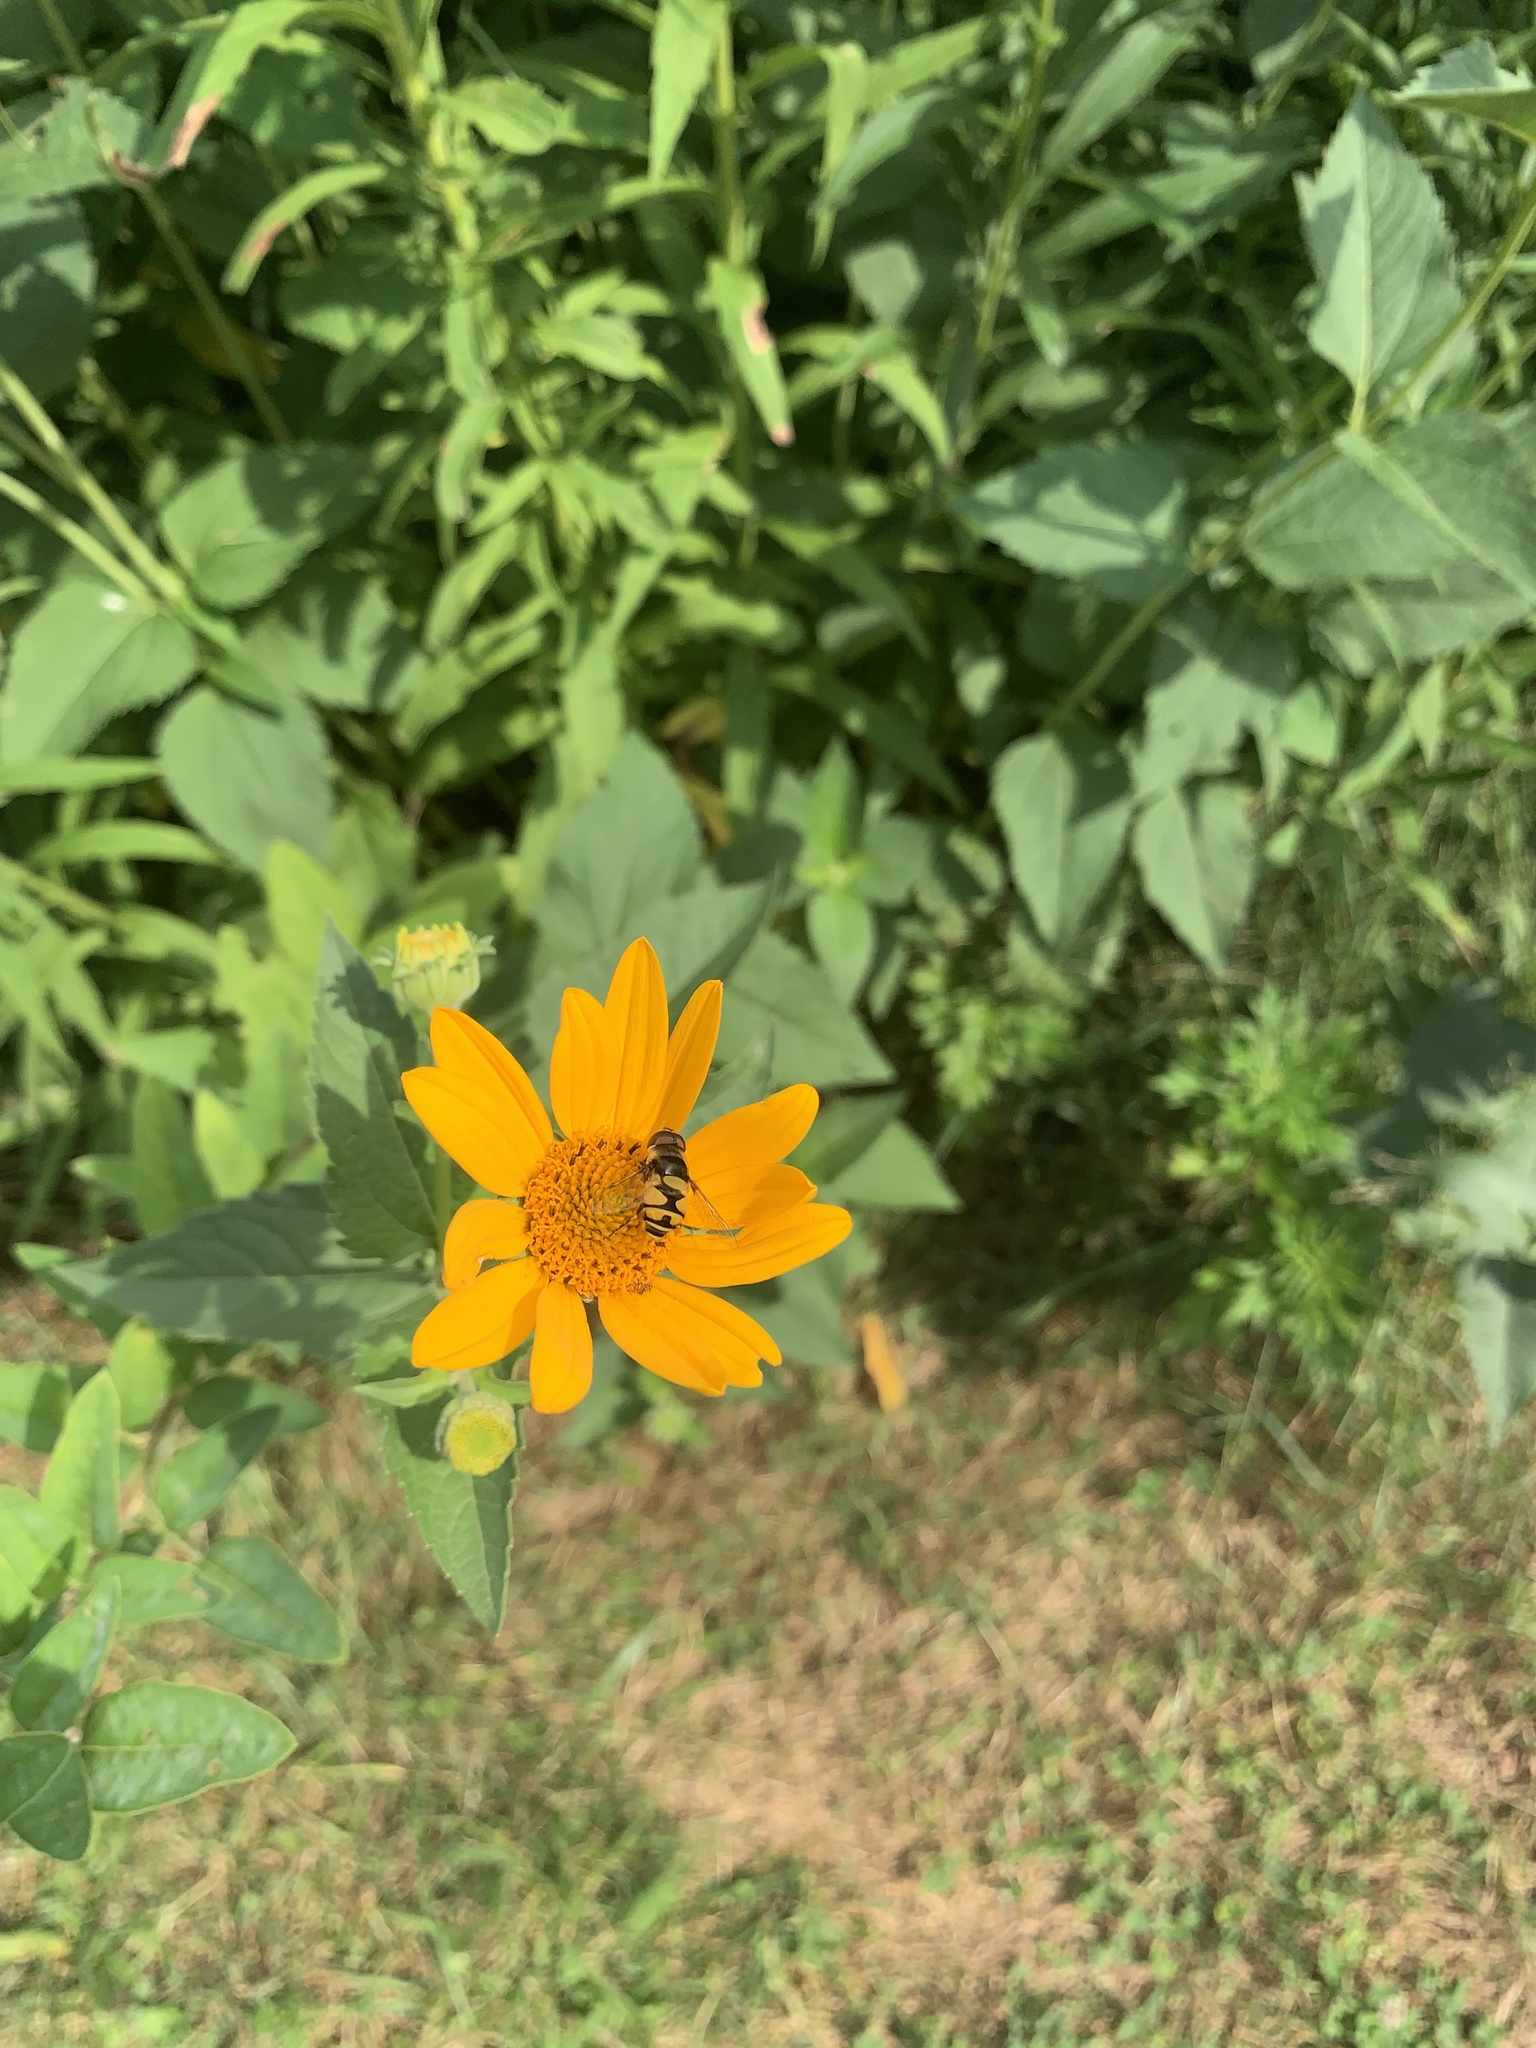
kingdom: Animalia
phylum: Arthropoda
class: Insecta
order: Diptera
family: Syrphidae
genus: Eristalis
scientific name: Eristalis transversa
